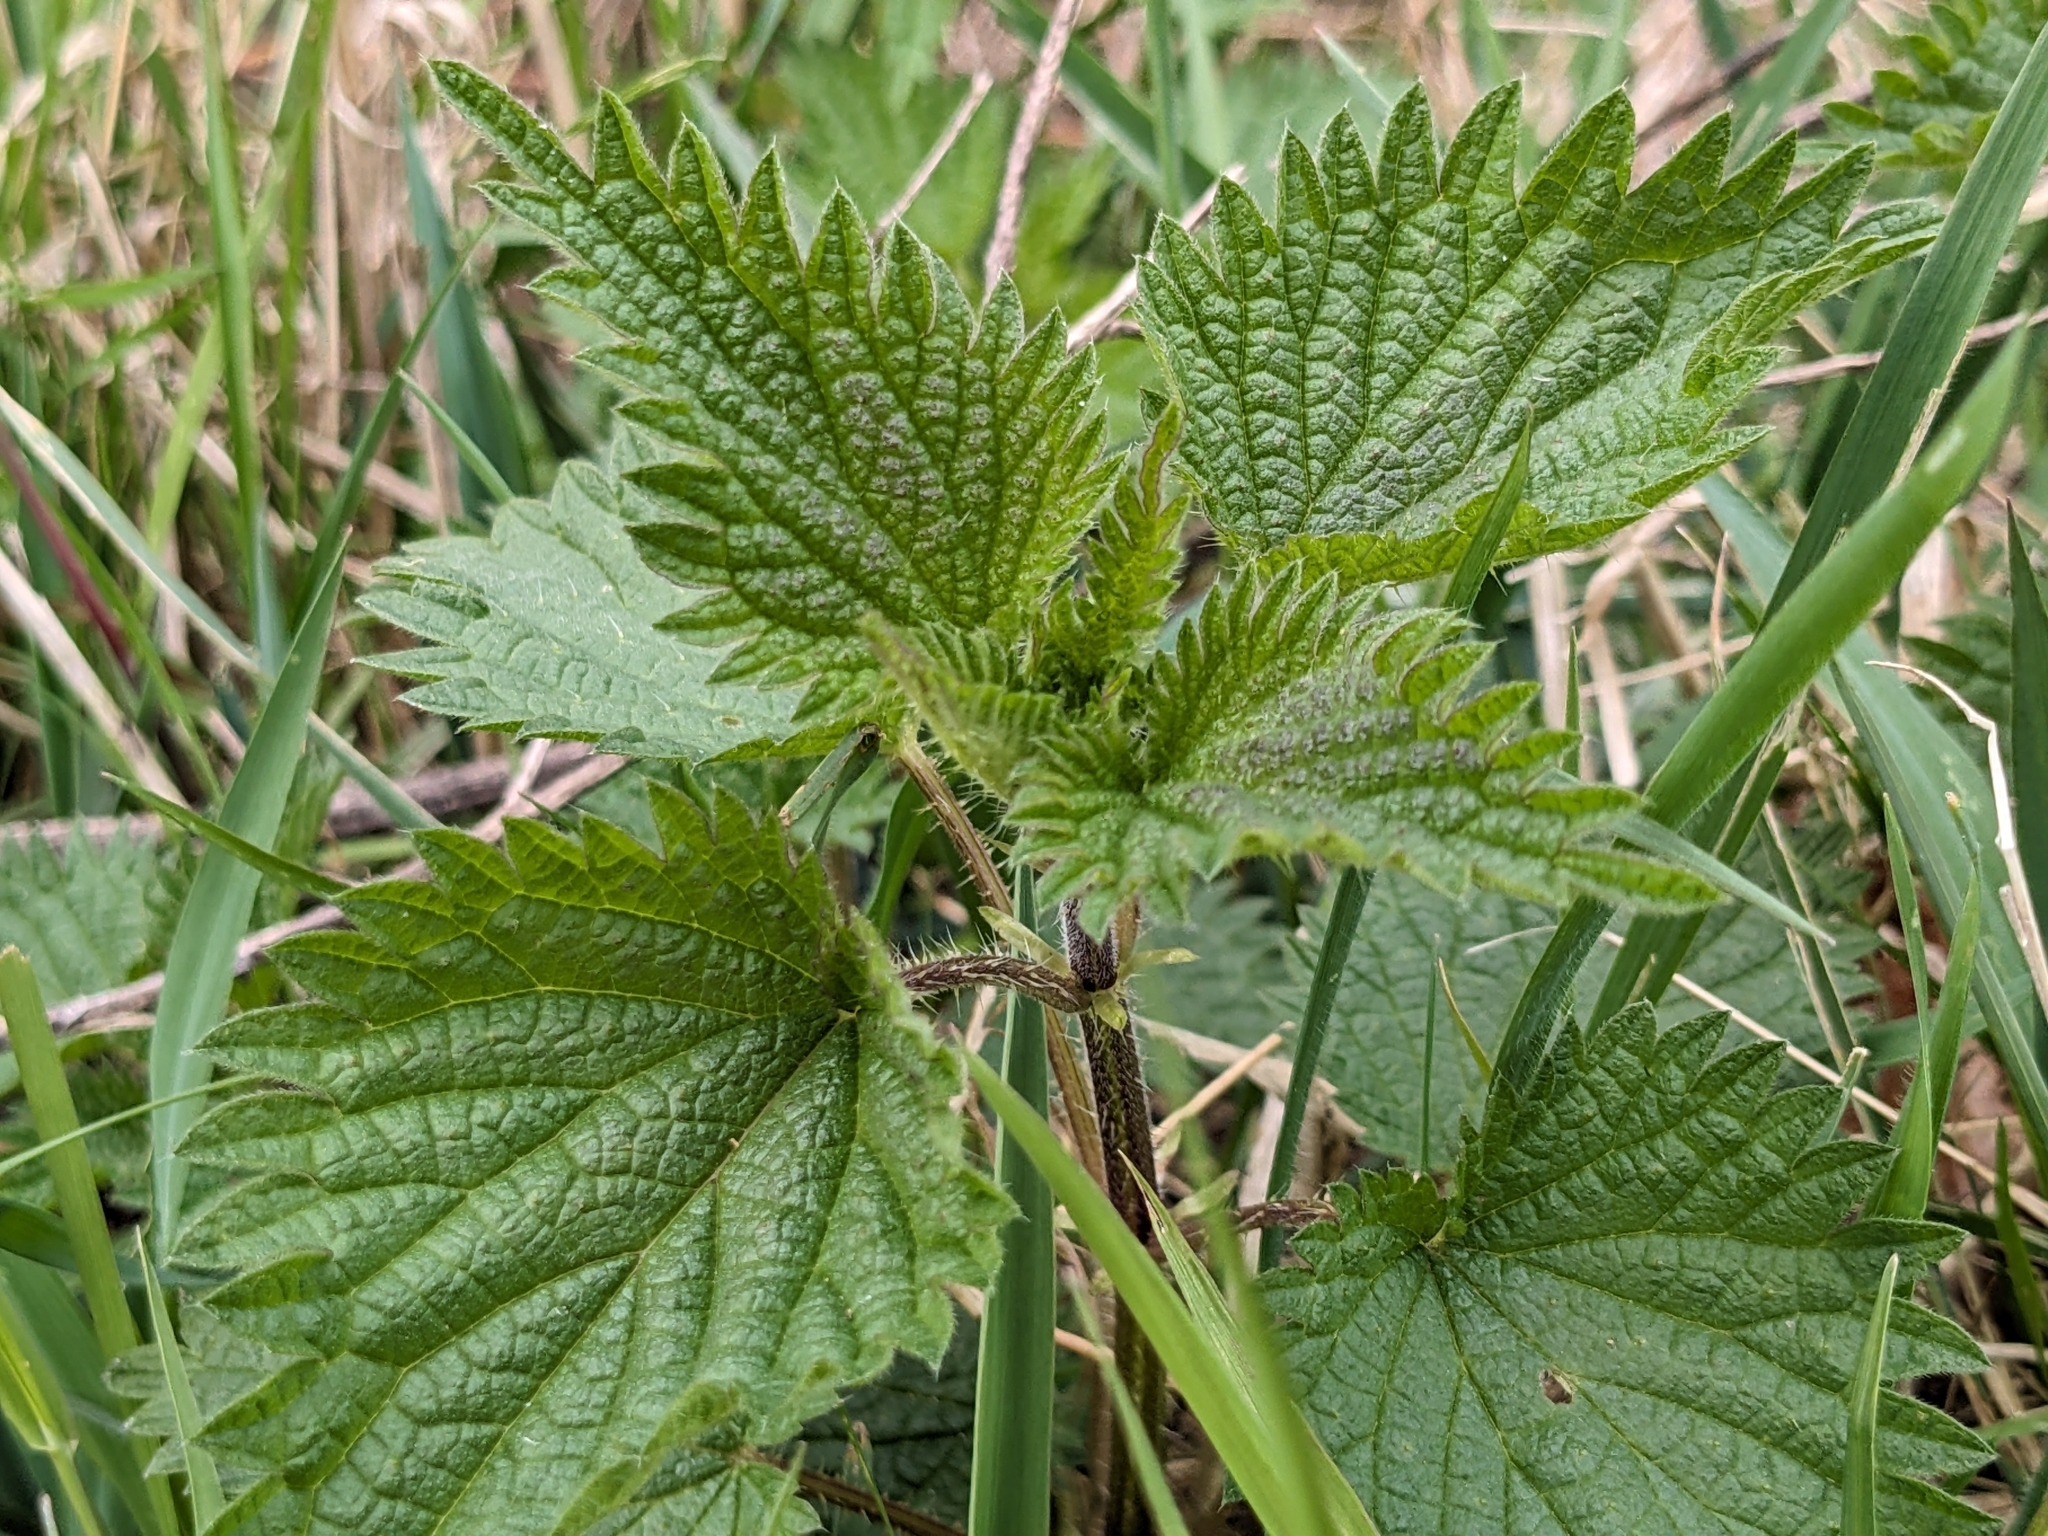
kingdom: Plantae
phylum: Tracheophyta
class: Magnoliopsida
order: Rosales
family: Urticaceae
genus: Urtica
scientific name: Urtica dioica
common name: Common nettle
